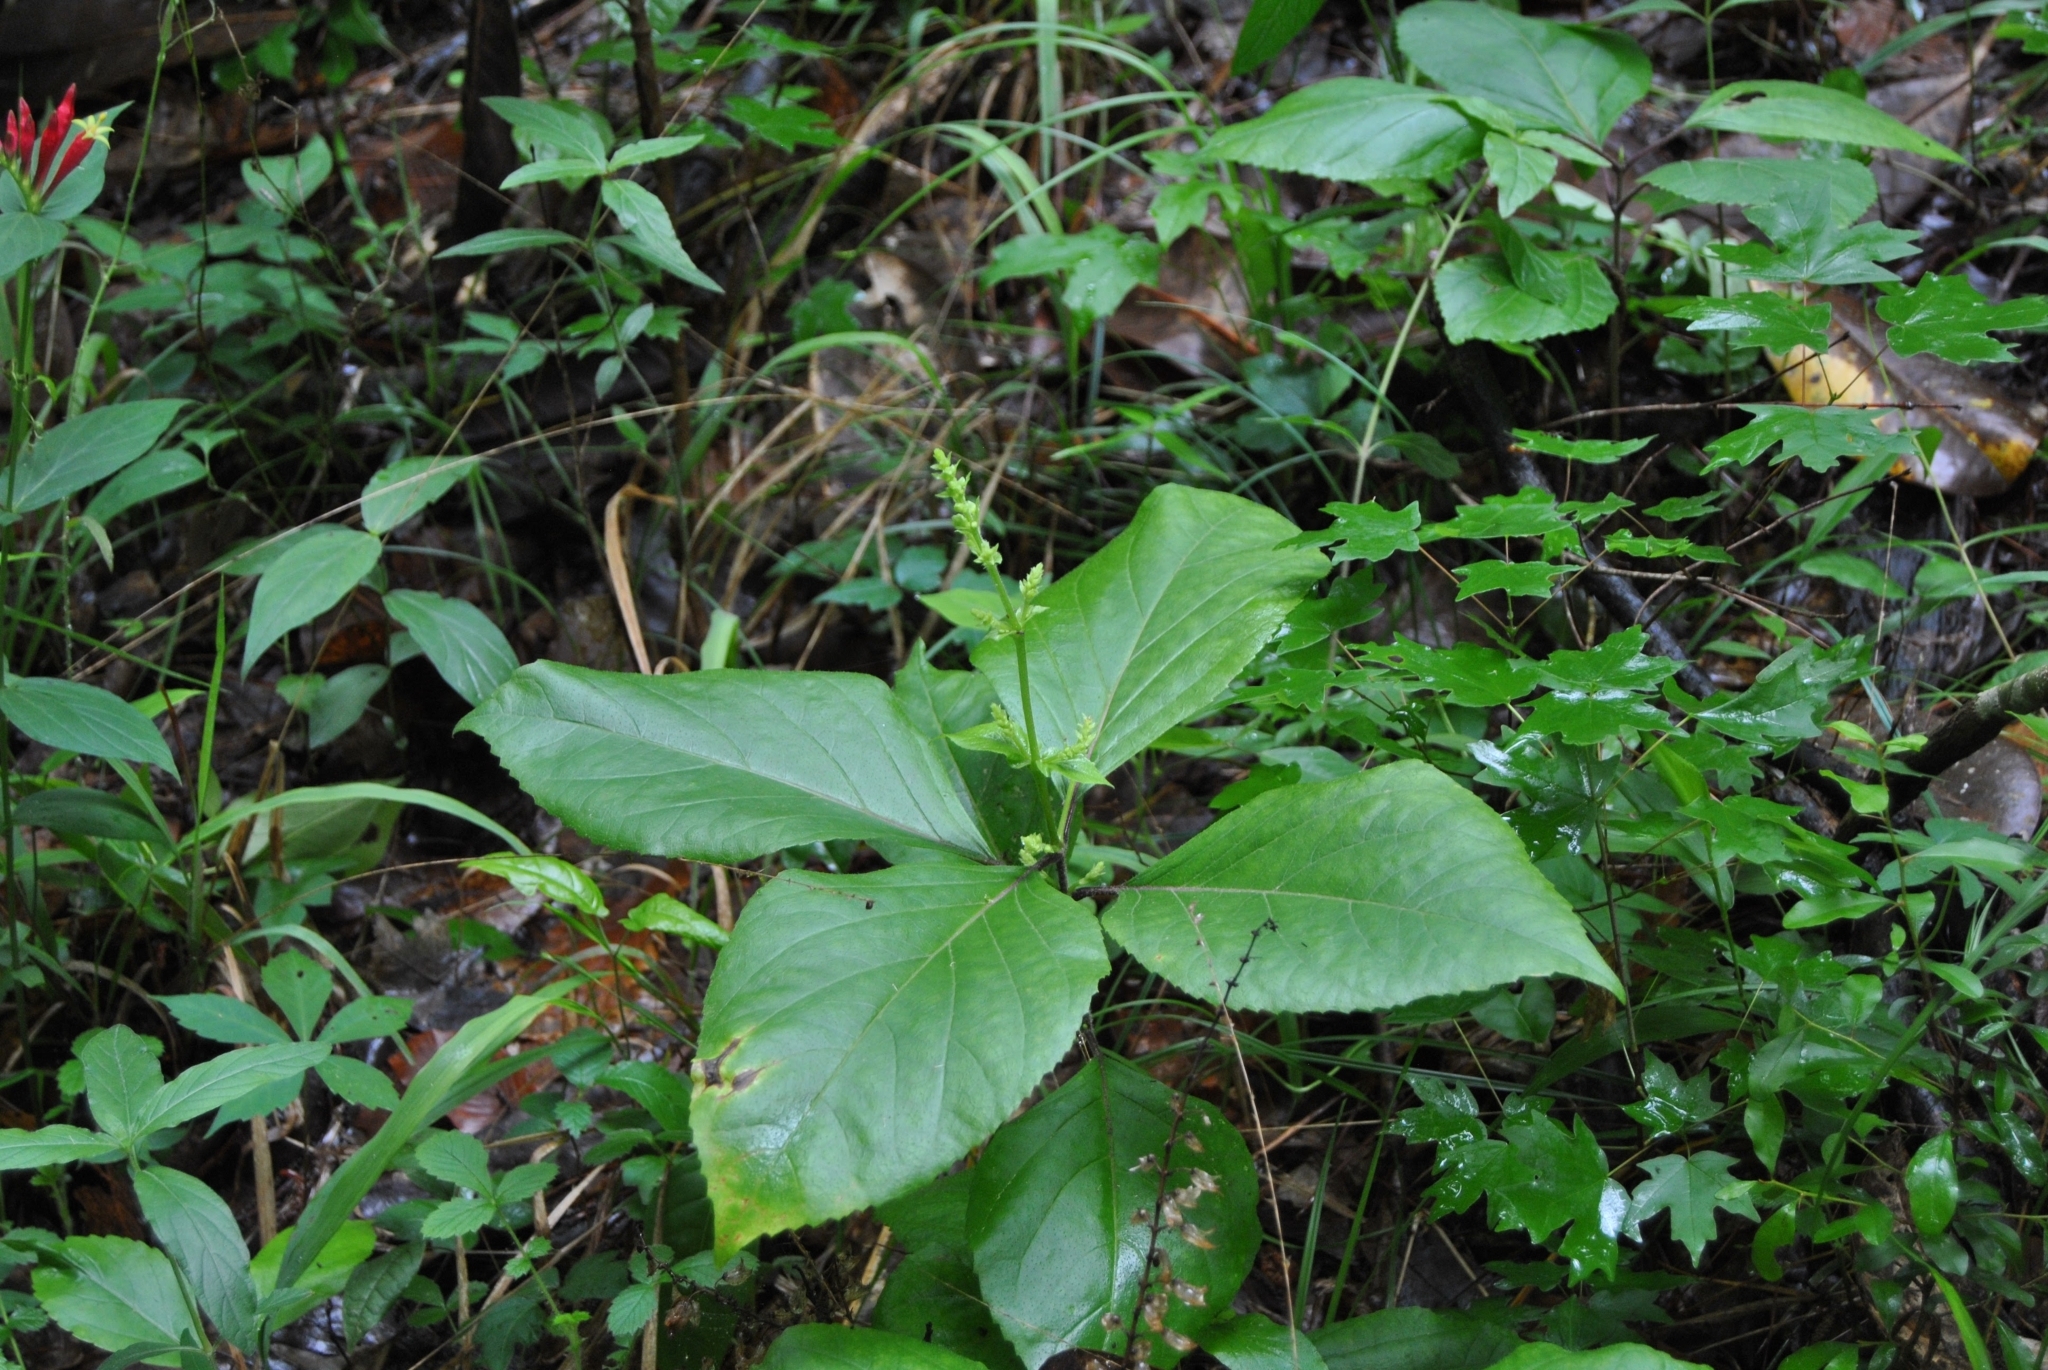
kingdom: Plantae
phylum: Tracheophyta
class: Magnoliopsida
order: Lamiales
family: Lamiaceae
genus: Collinsonia
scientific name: Collinsonia canadensis
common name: Northern horsebalm
